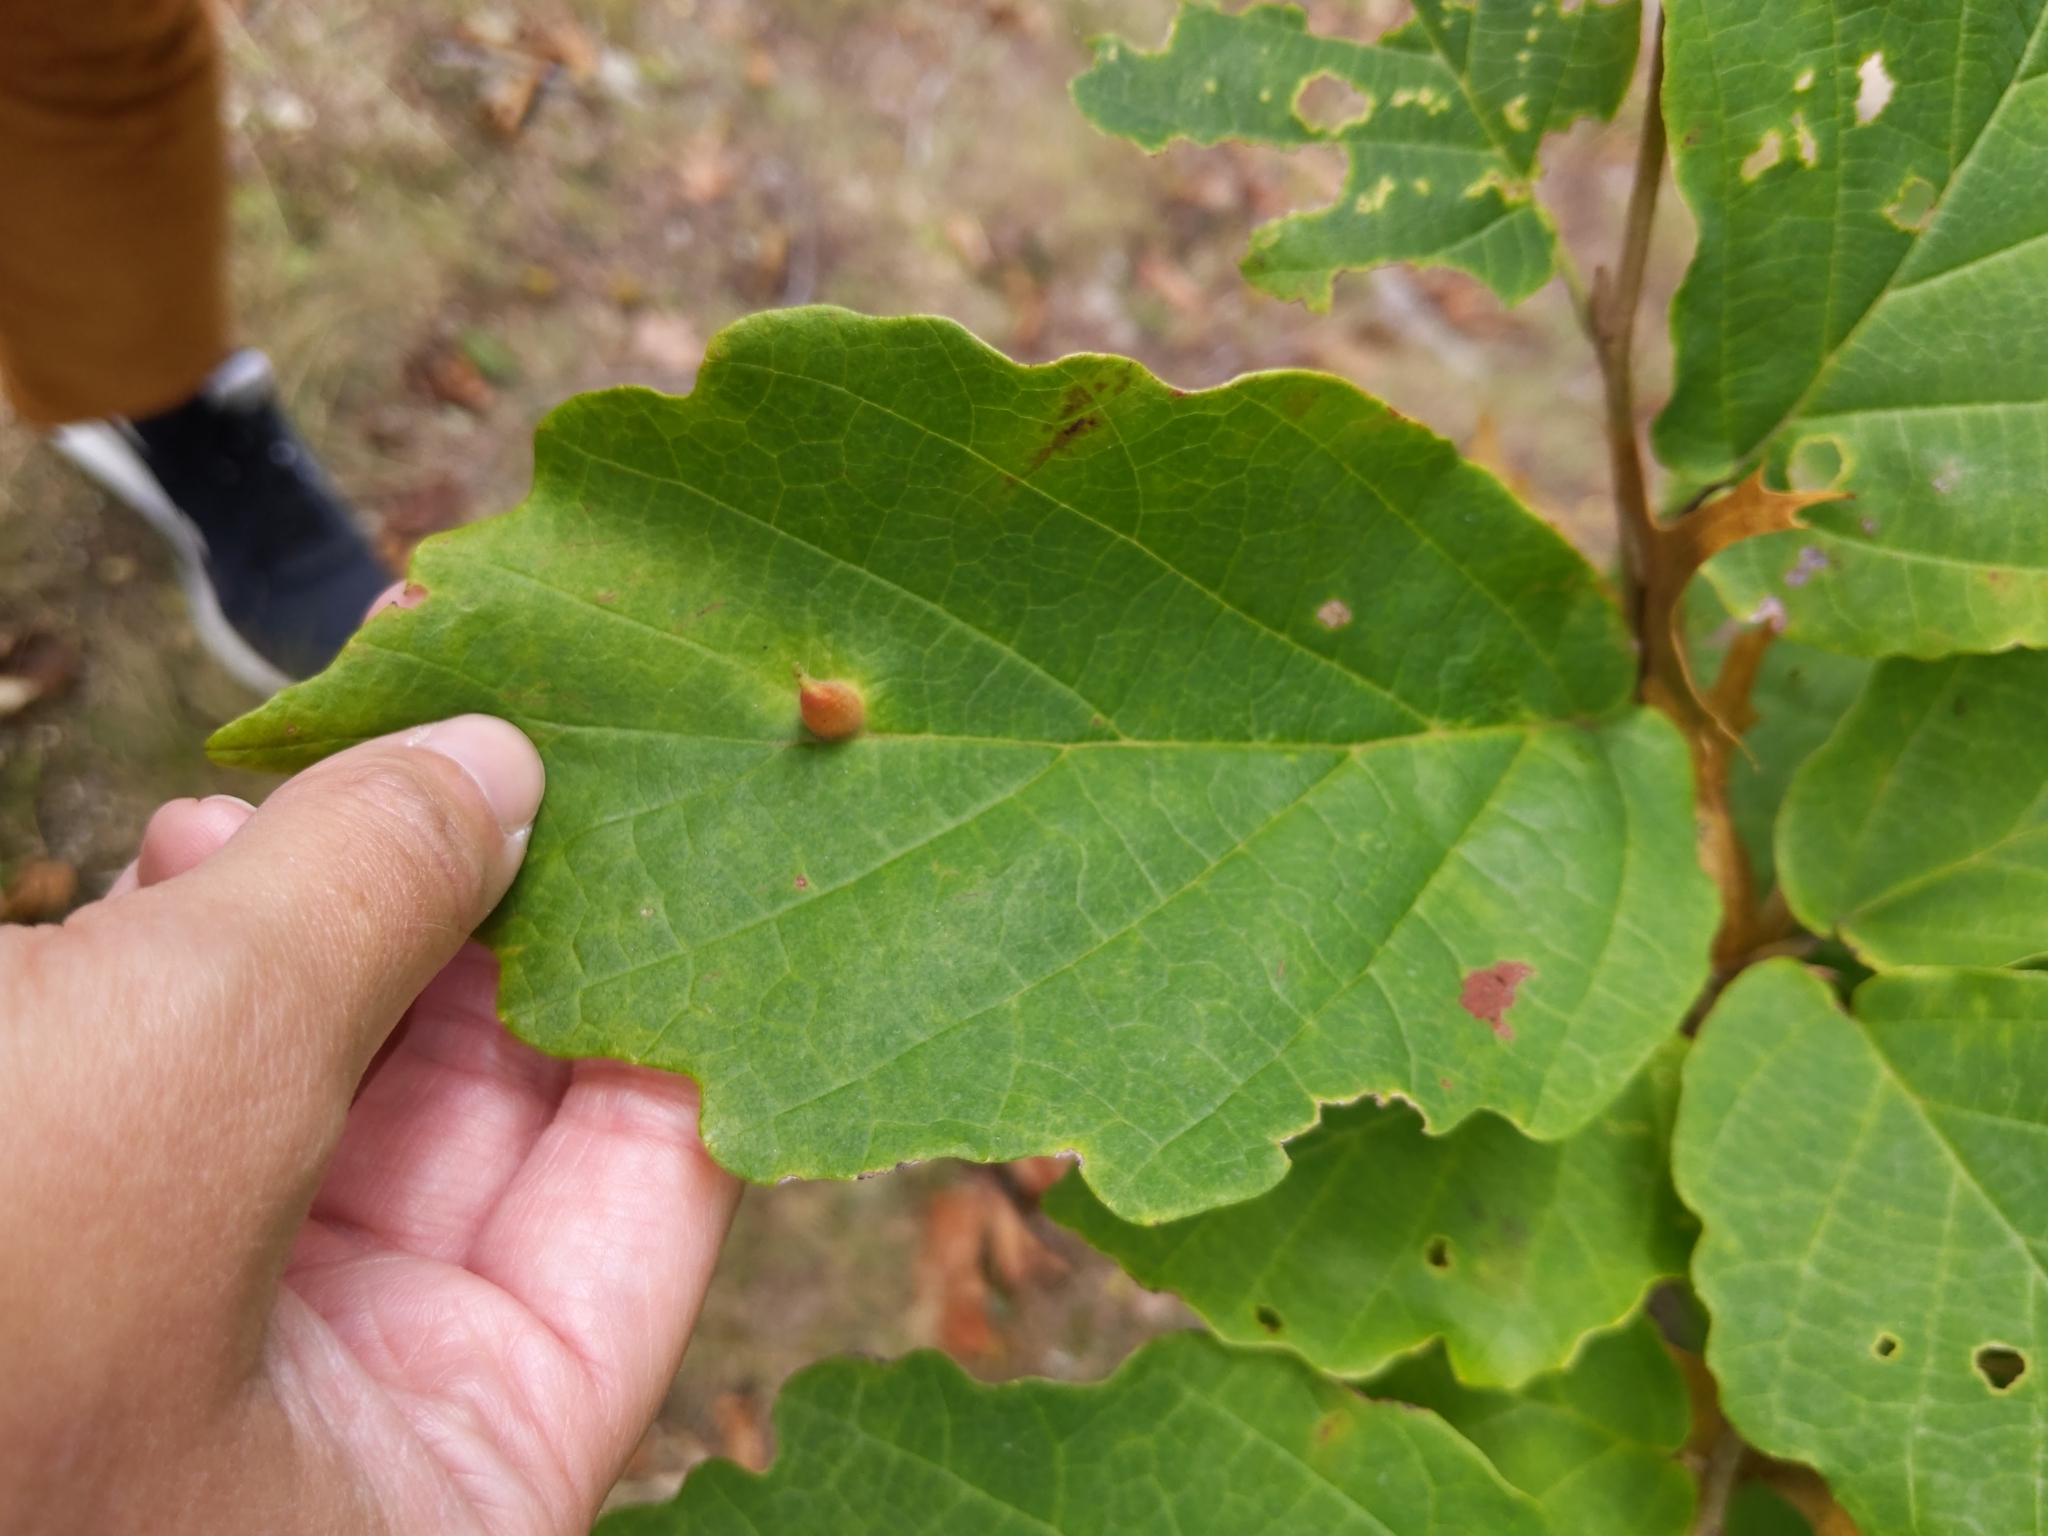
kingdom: Animalia
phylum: Arthropoda
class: Insecta
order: Hemiptera
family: Aphididae
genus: Hormaphis
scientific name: Hormaphis hamamelidis
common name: Witch-hazel cone gall aphid
